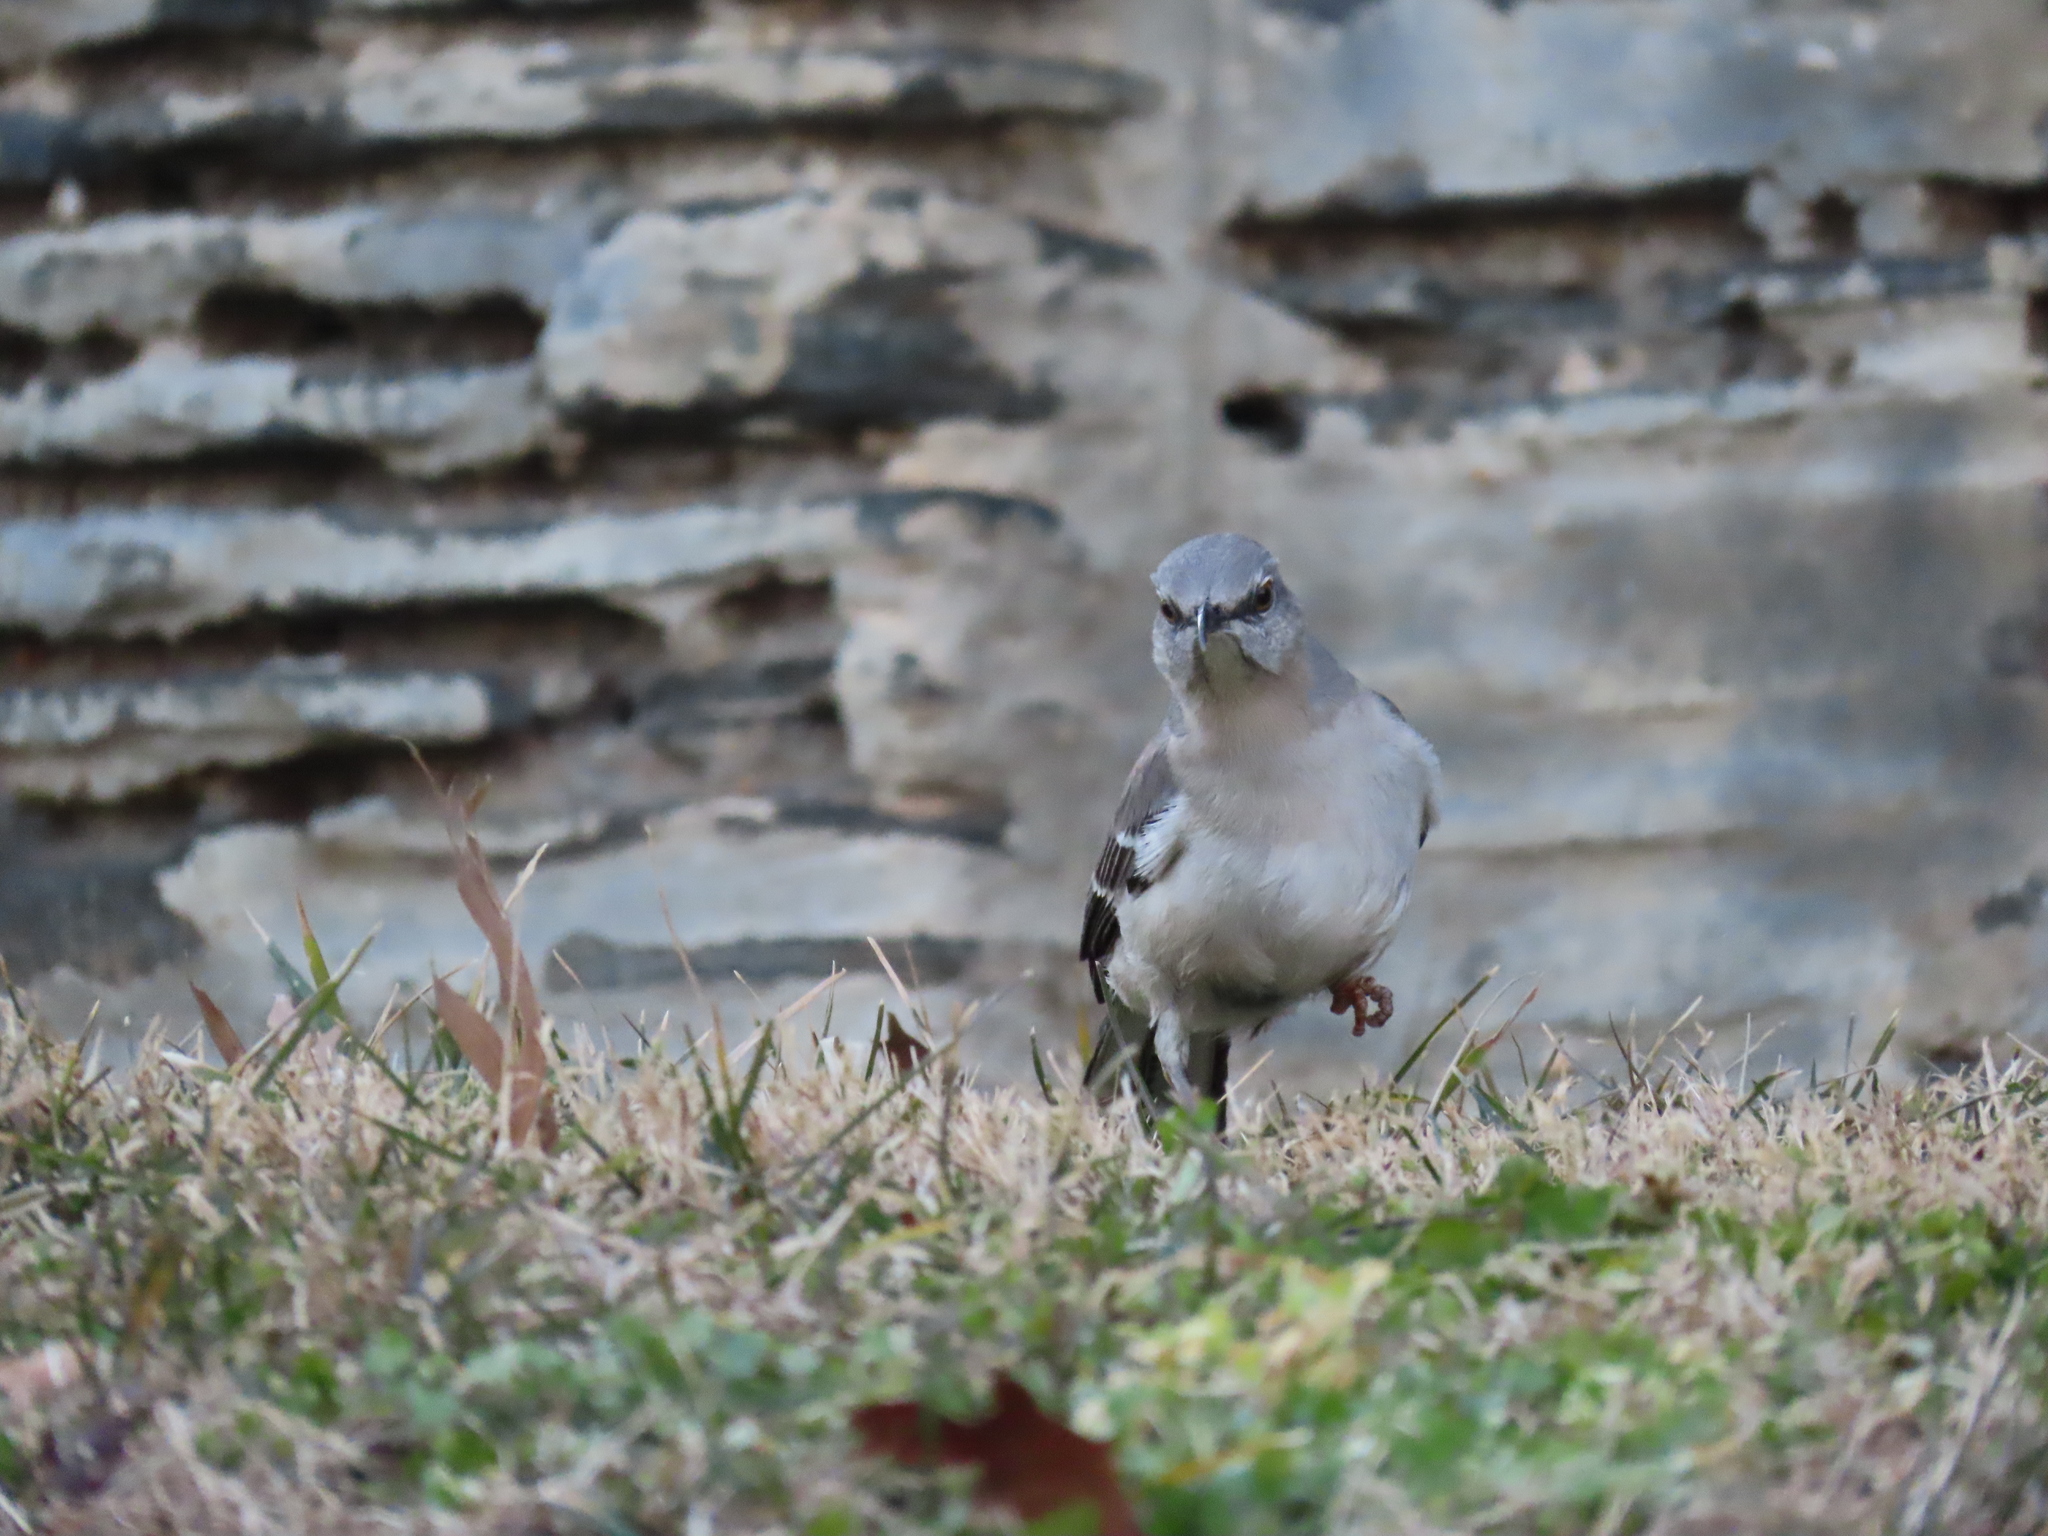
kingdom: Animalia
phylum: Chordata
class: Aves
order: Passeriformes
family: Mimidae
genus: Mimus
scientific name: Mimus polyglottos
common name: Northern mockingbird
